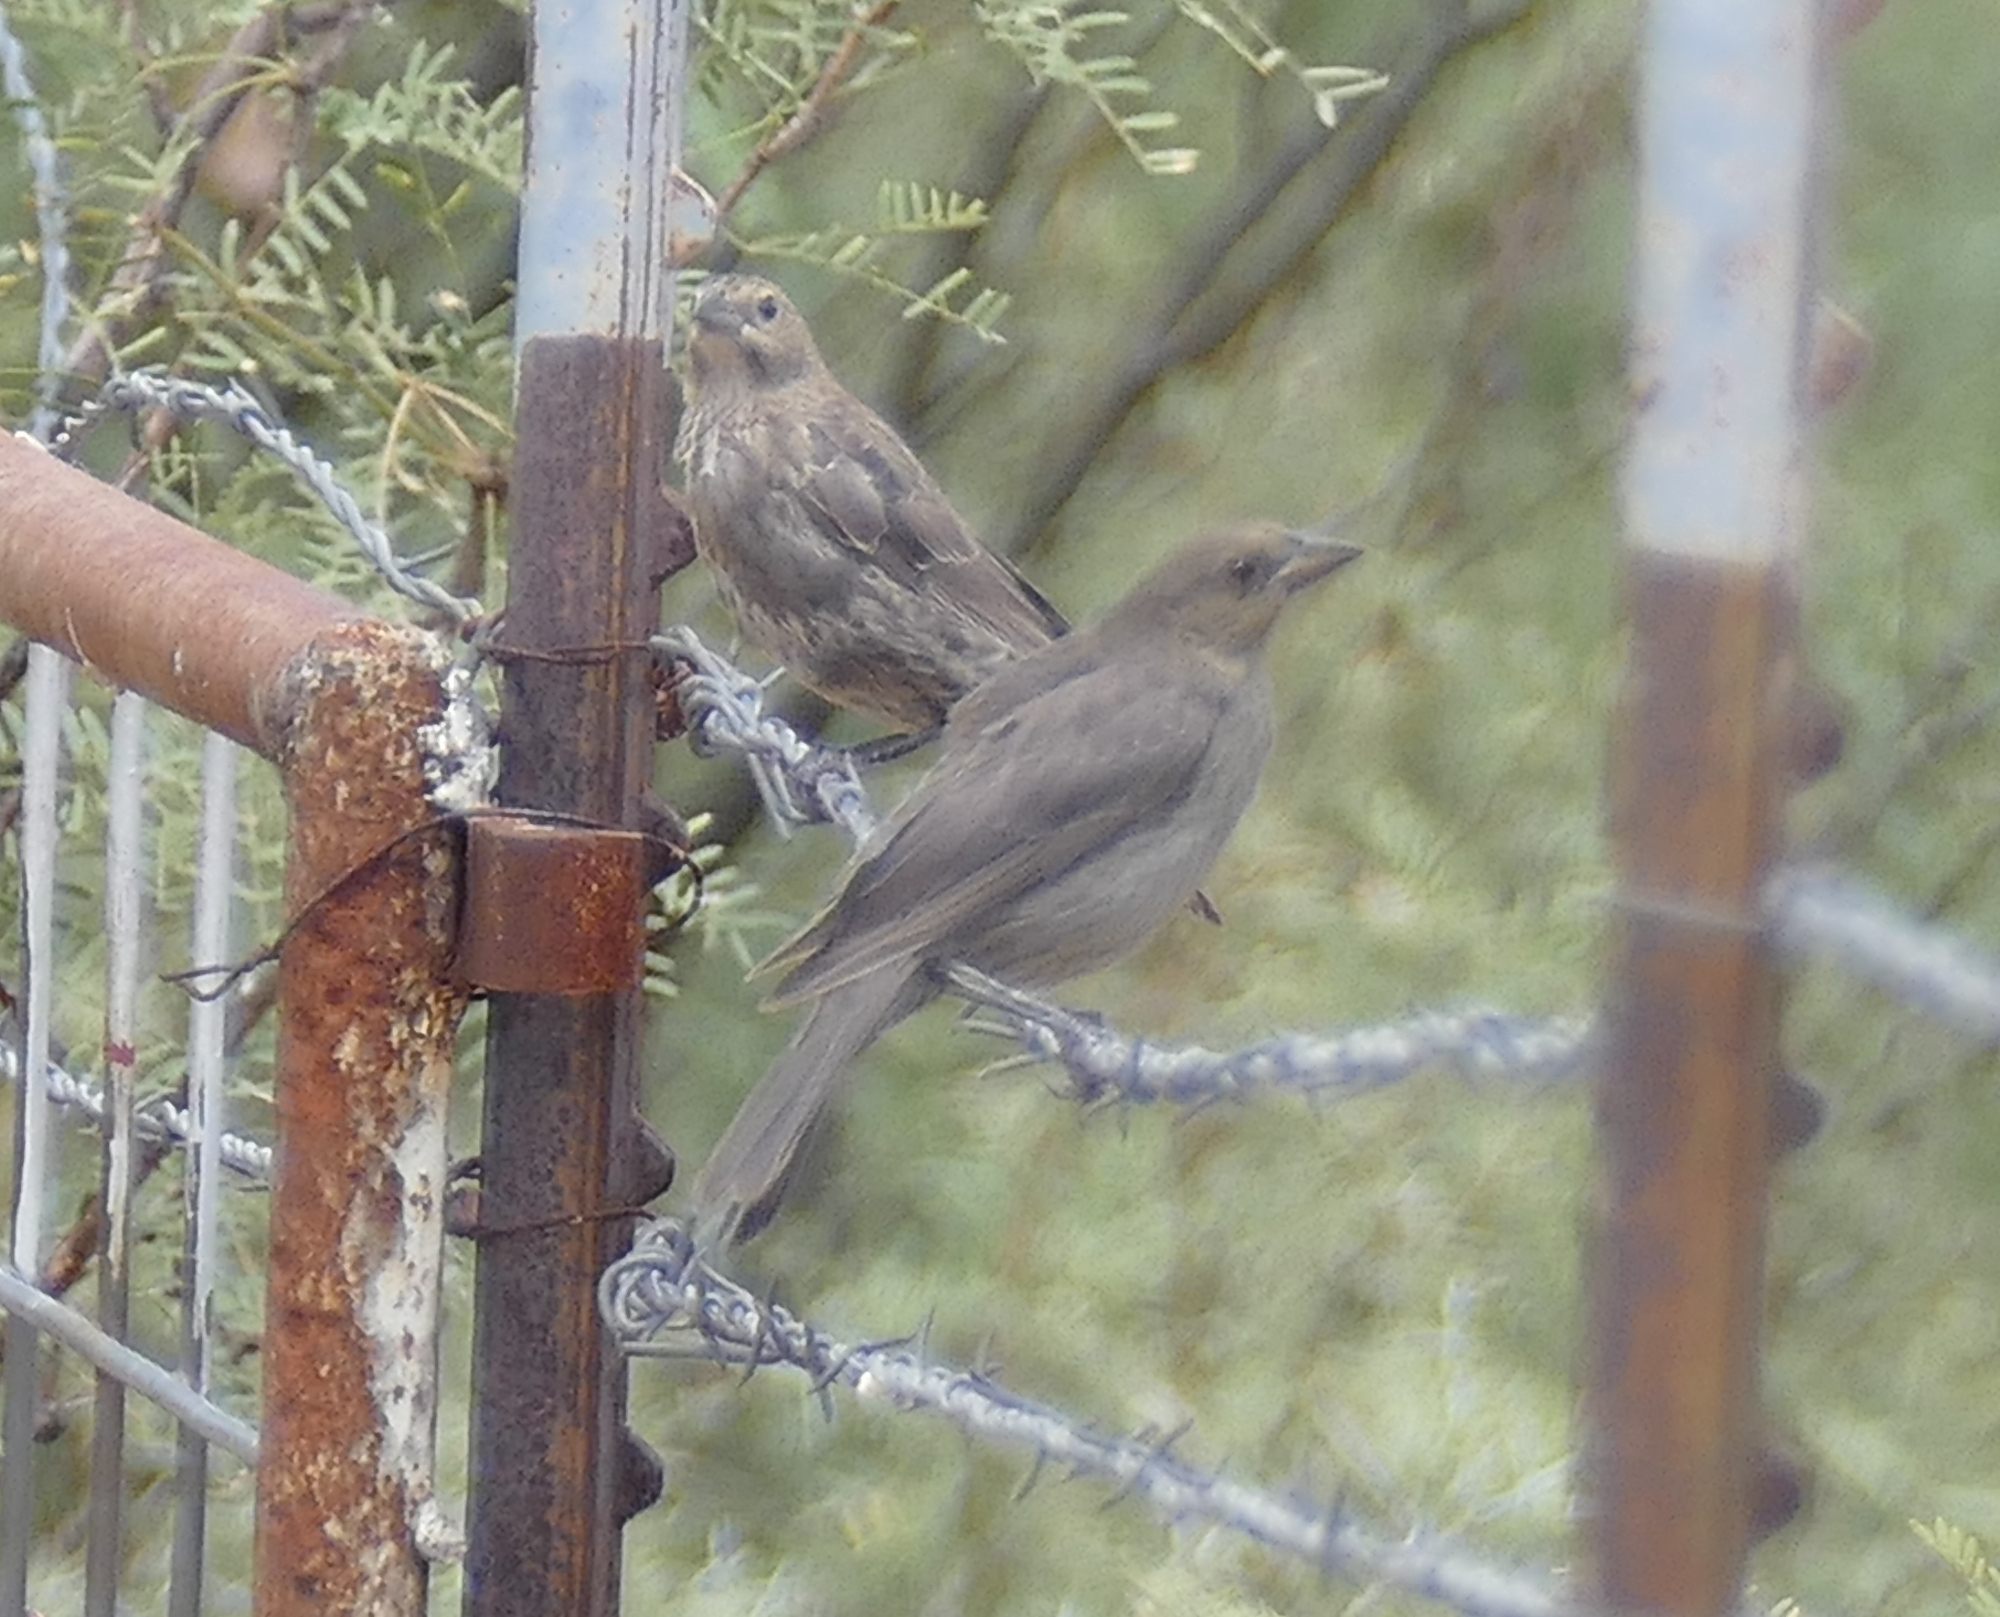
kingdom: Animalia
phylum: Chordata
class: Aves
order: Passeriformes
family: Icteridae
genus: Molothrus
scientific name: Molothrus ater
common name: Brown-headed cowbird
